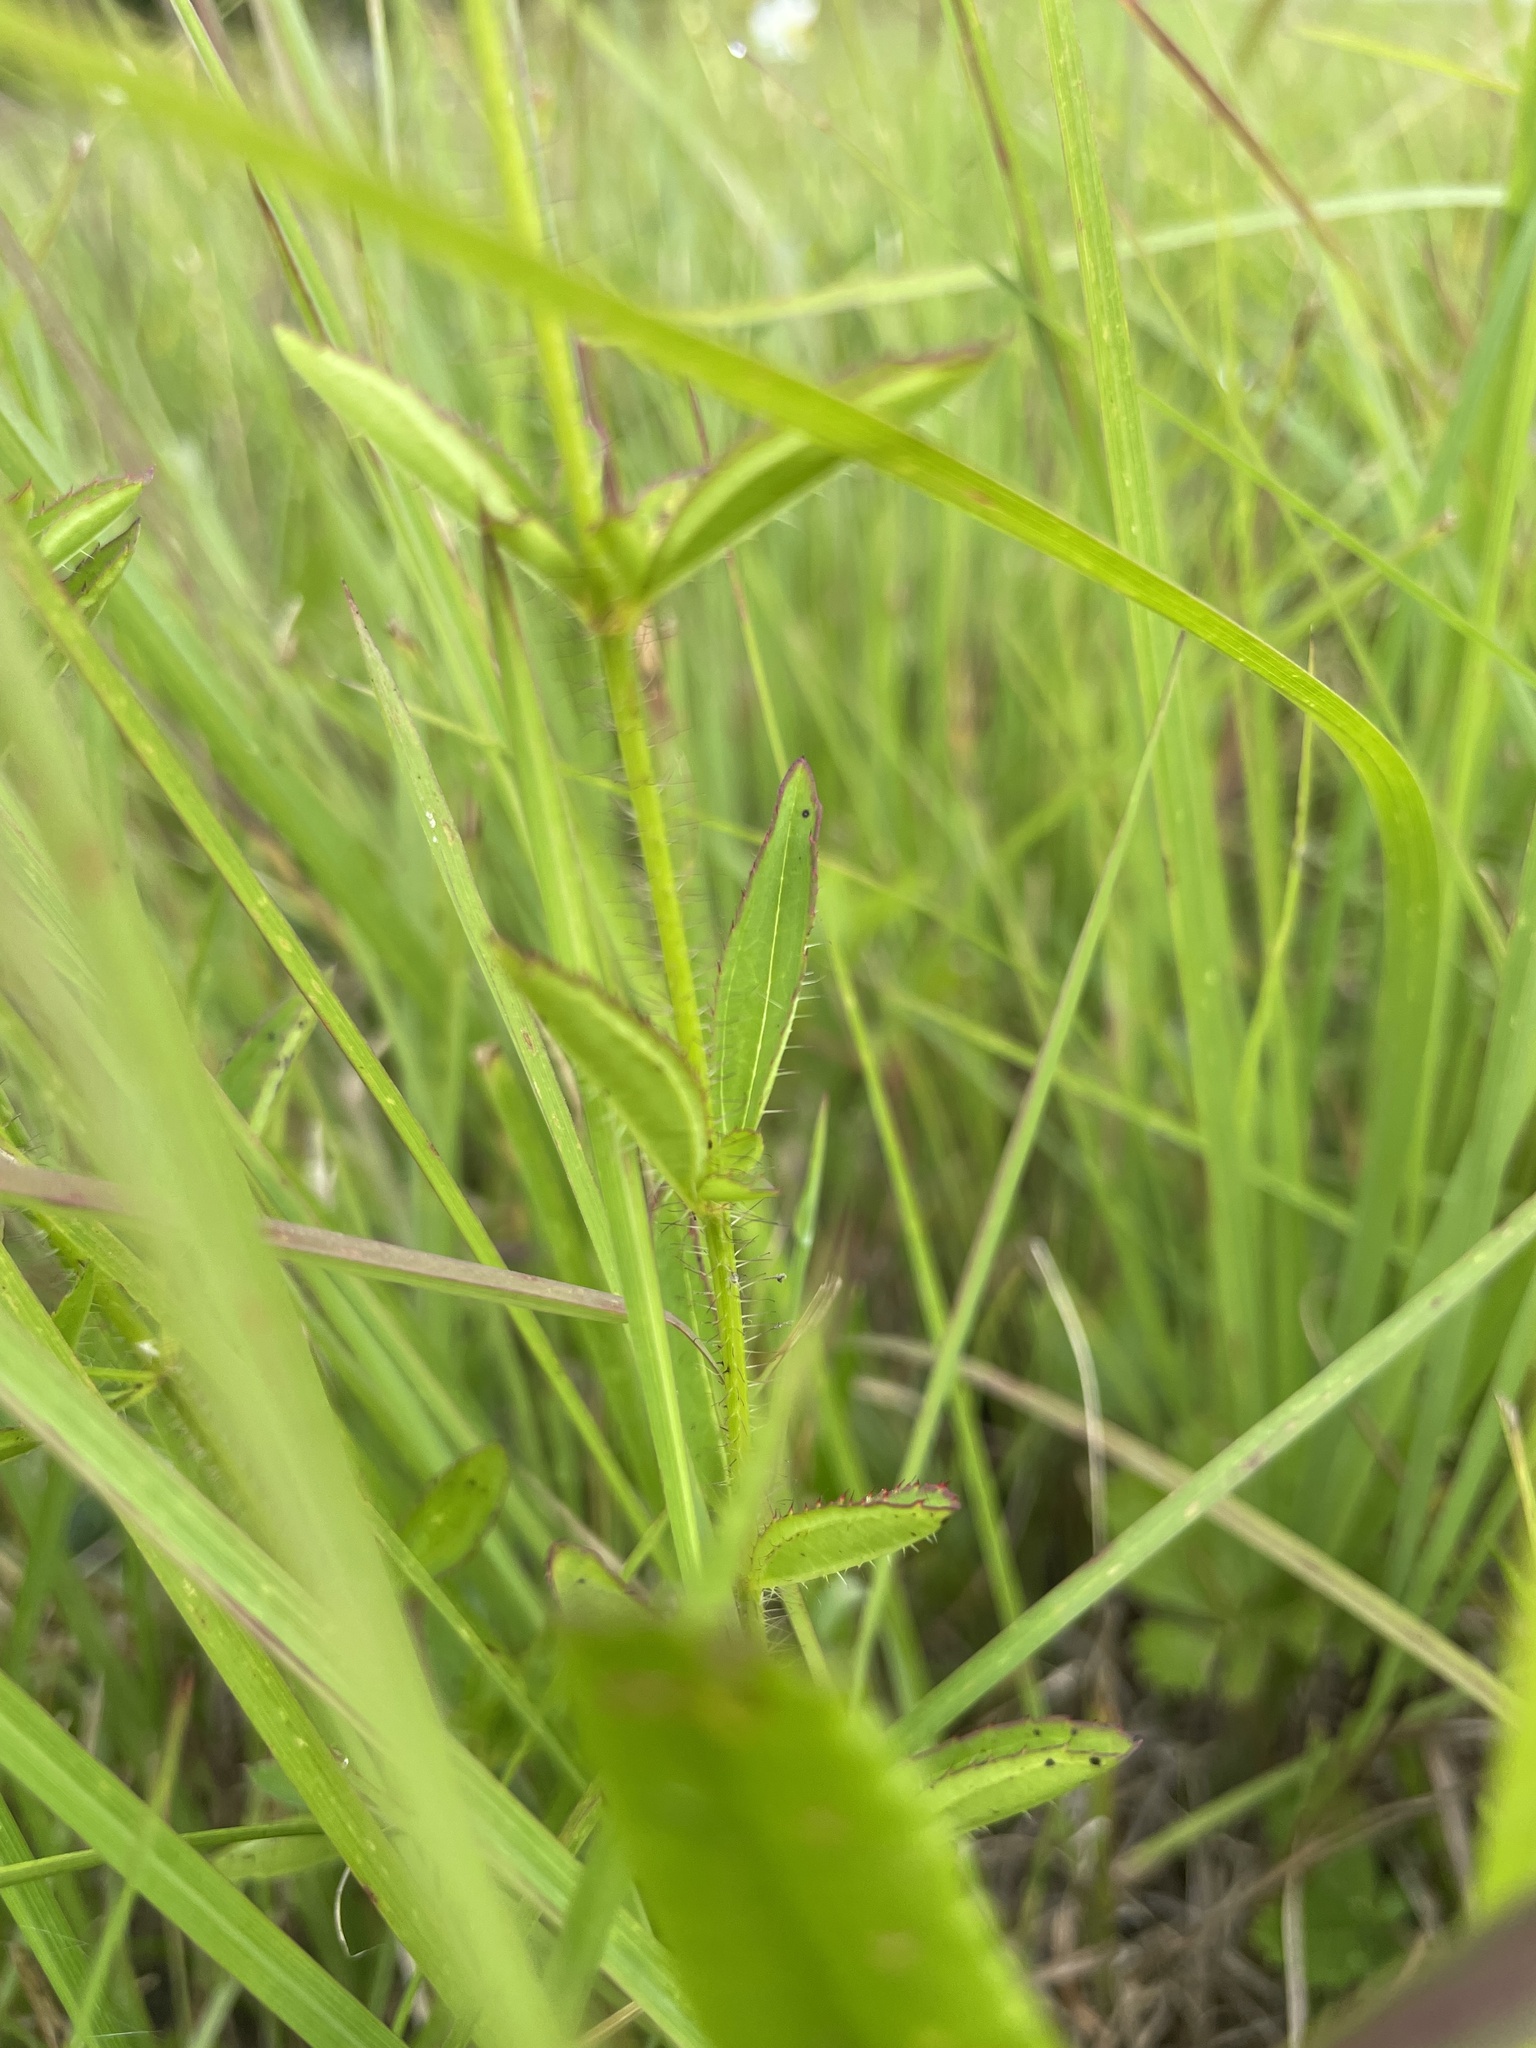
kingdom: Plantae
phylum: Tracheophyta
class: Magnoliopsida
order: Myrtales
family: Melastomataceae
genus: Rhexia
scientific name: Rhexia mariana
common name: Dull meadow-pitcher
